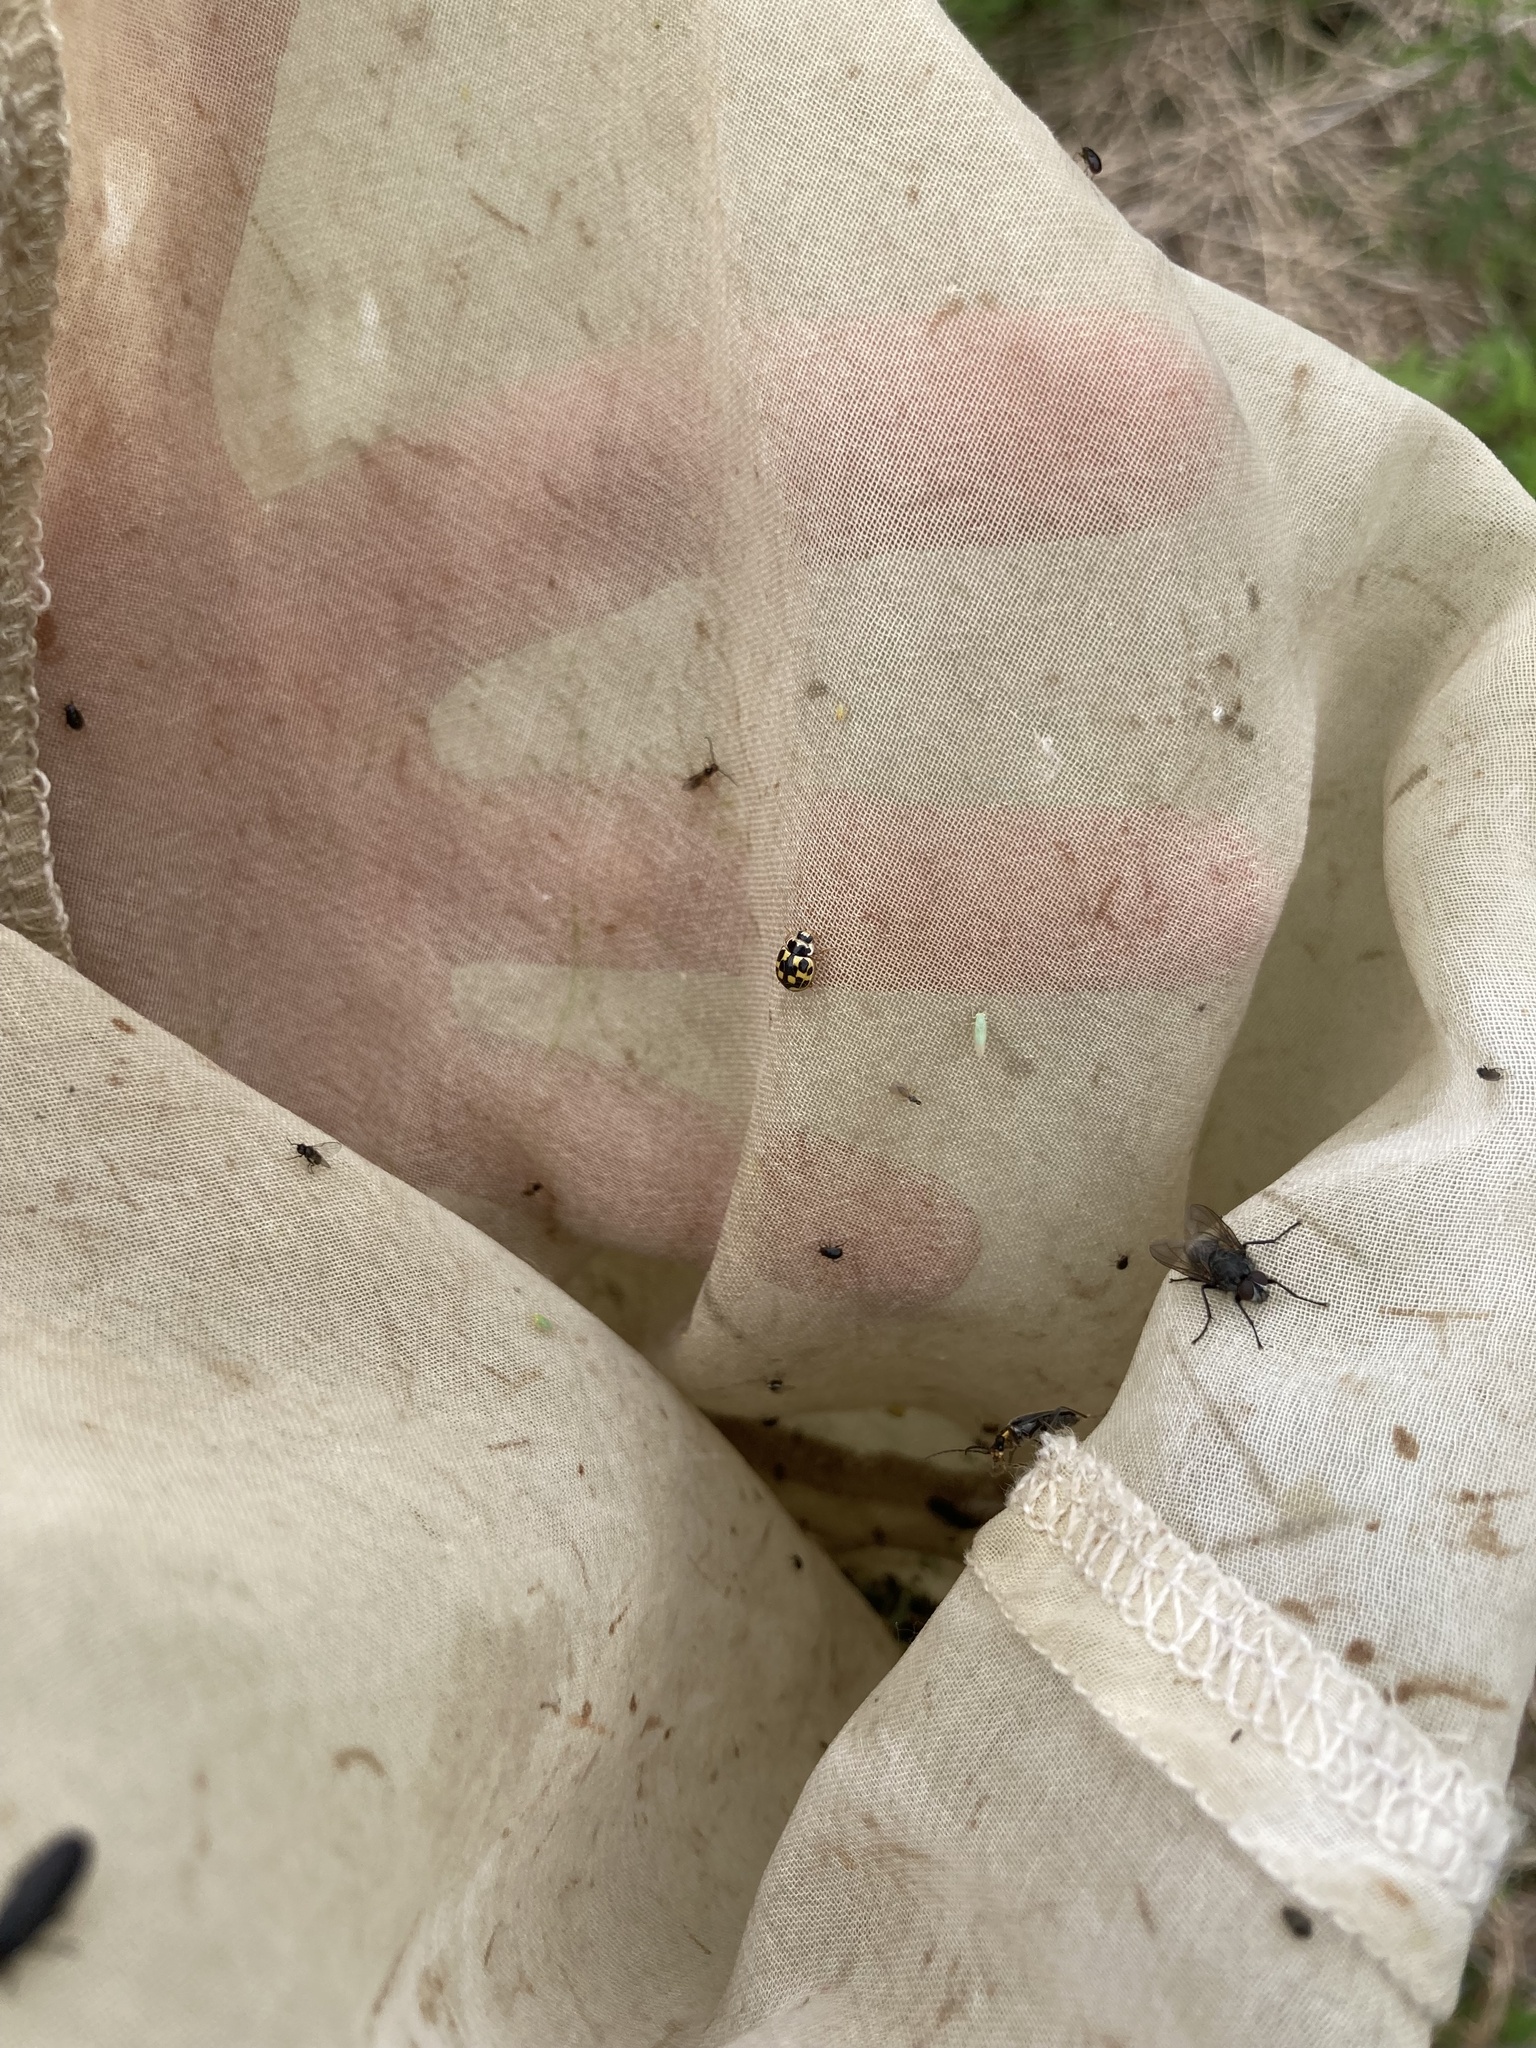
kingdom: Animalia
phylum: Arthropoda
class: Insecta
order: Coleoptera
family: Coccinellidae
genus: Propylaea
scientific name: Propylaea quatuordecimpunctata
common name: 14-spotted ladybird beetle
